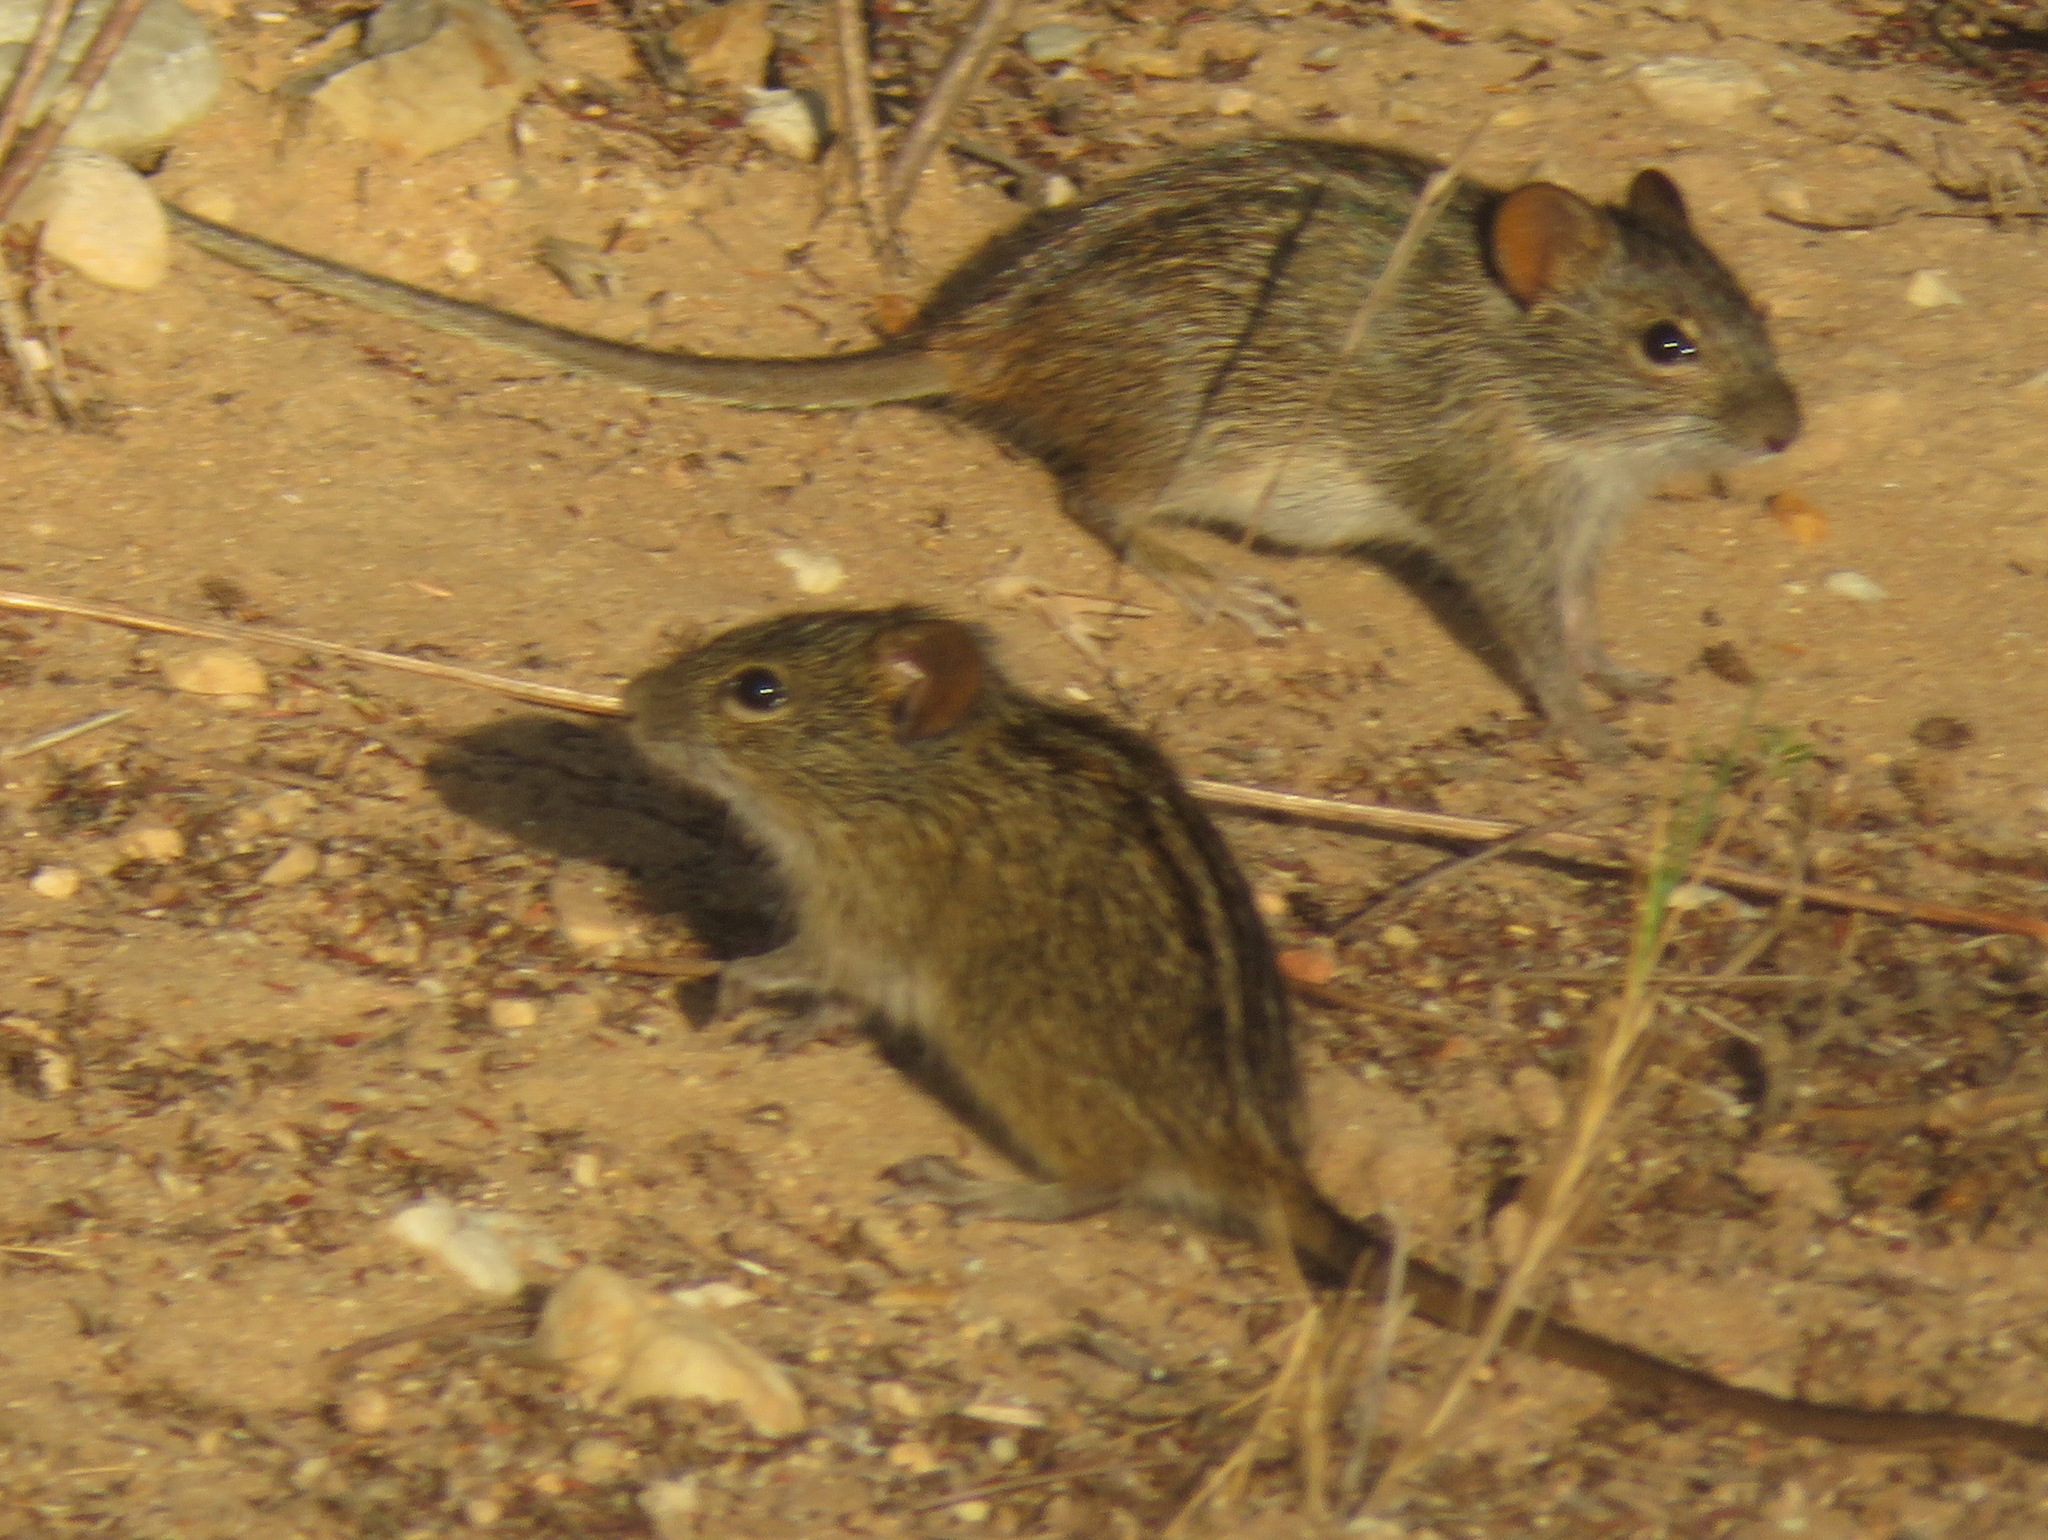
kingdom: Animalia
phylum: Chordata
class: Mammalia
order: Rodentia
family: Muridae
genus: Rhabdomys
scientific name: Rhabdomys pumilio
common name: Xeric four-striped grass rat
